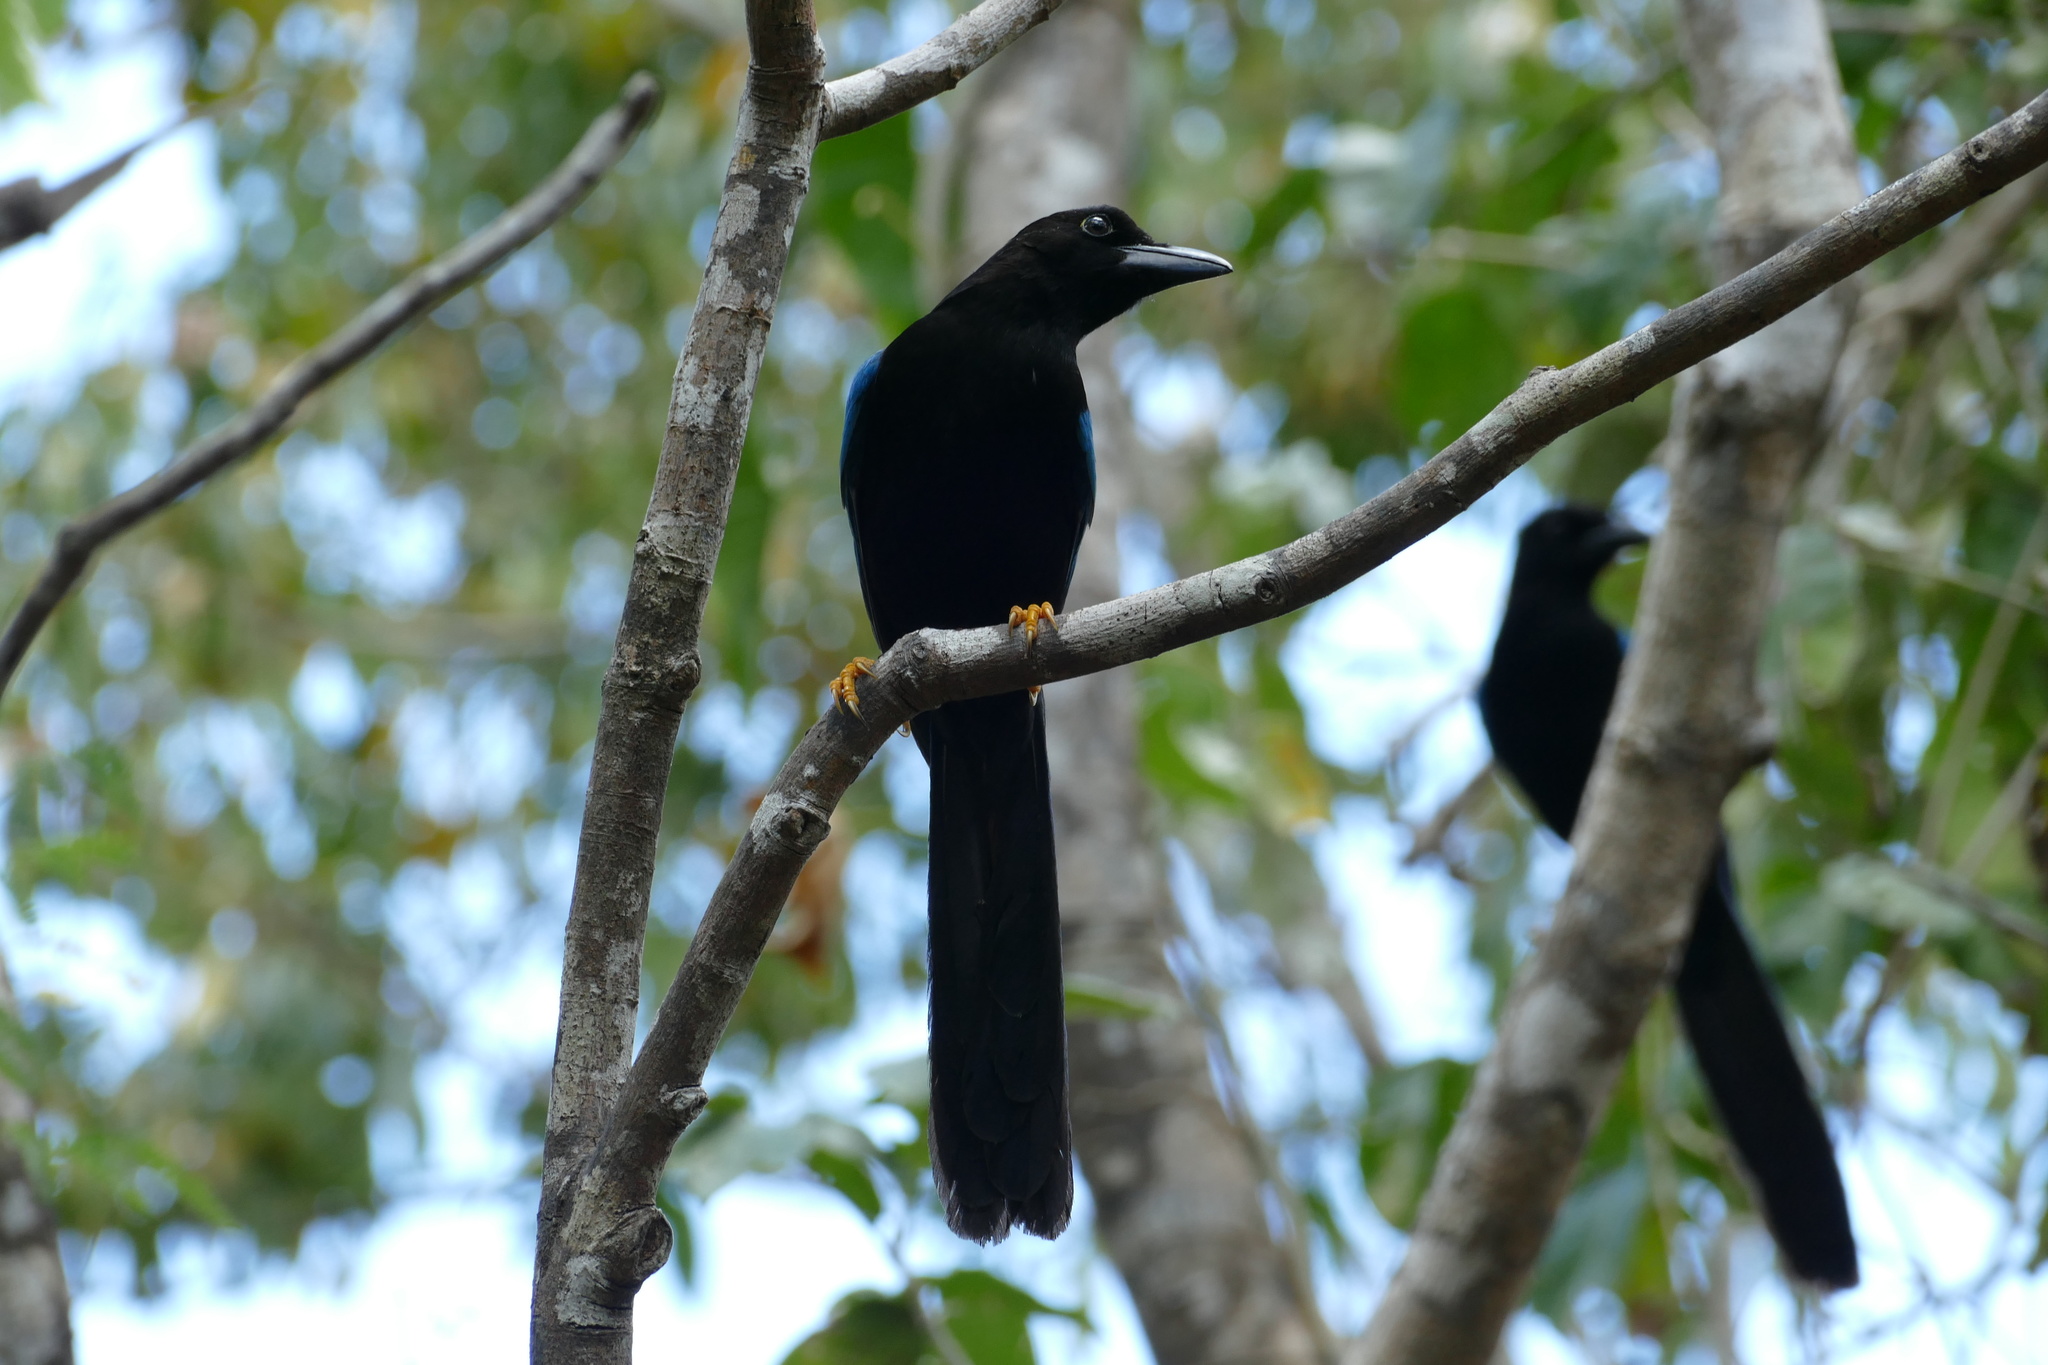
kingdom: Animalia
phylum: Chordata
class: Aves
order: Passeriformes
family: Corvidae
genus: Cyanocorax
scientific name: Cyanocorax yucatanicus
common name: Yucatan jay
